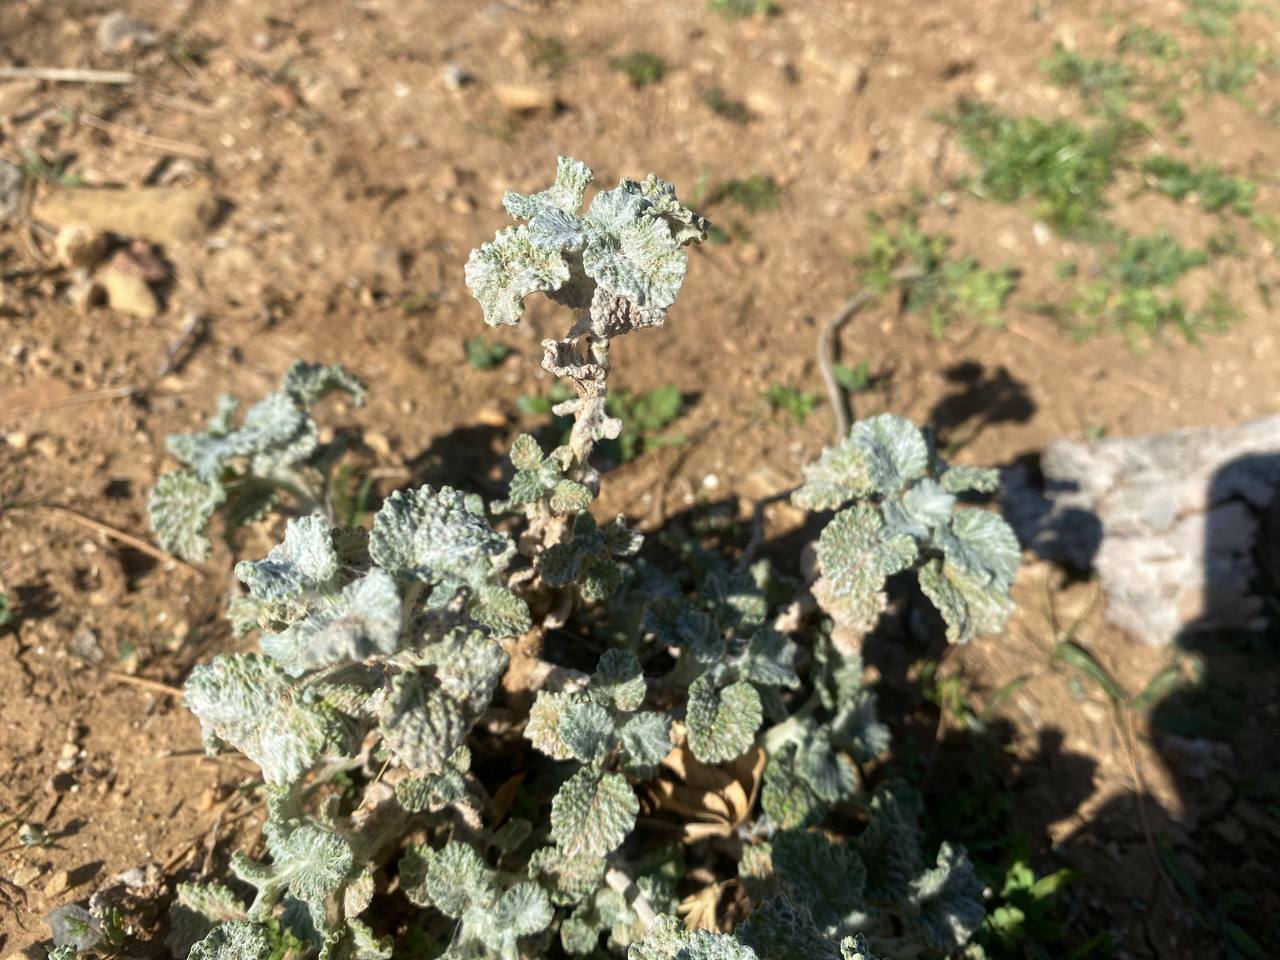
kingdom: Plantae
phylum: Tracheophyta
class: Magnoliopsida
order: Lamiales
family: Lamiaceae
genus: Marrubium
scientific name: Marrubium vulgare
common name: Horehound
